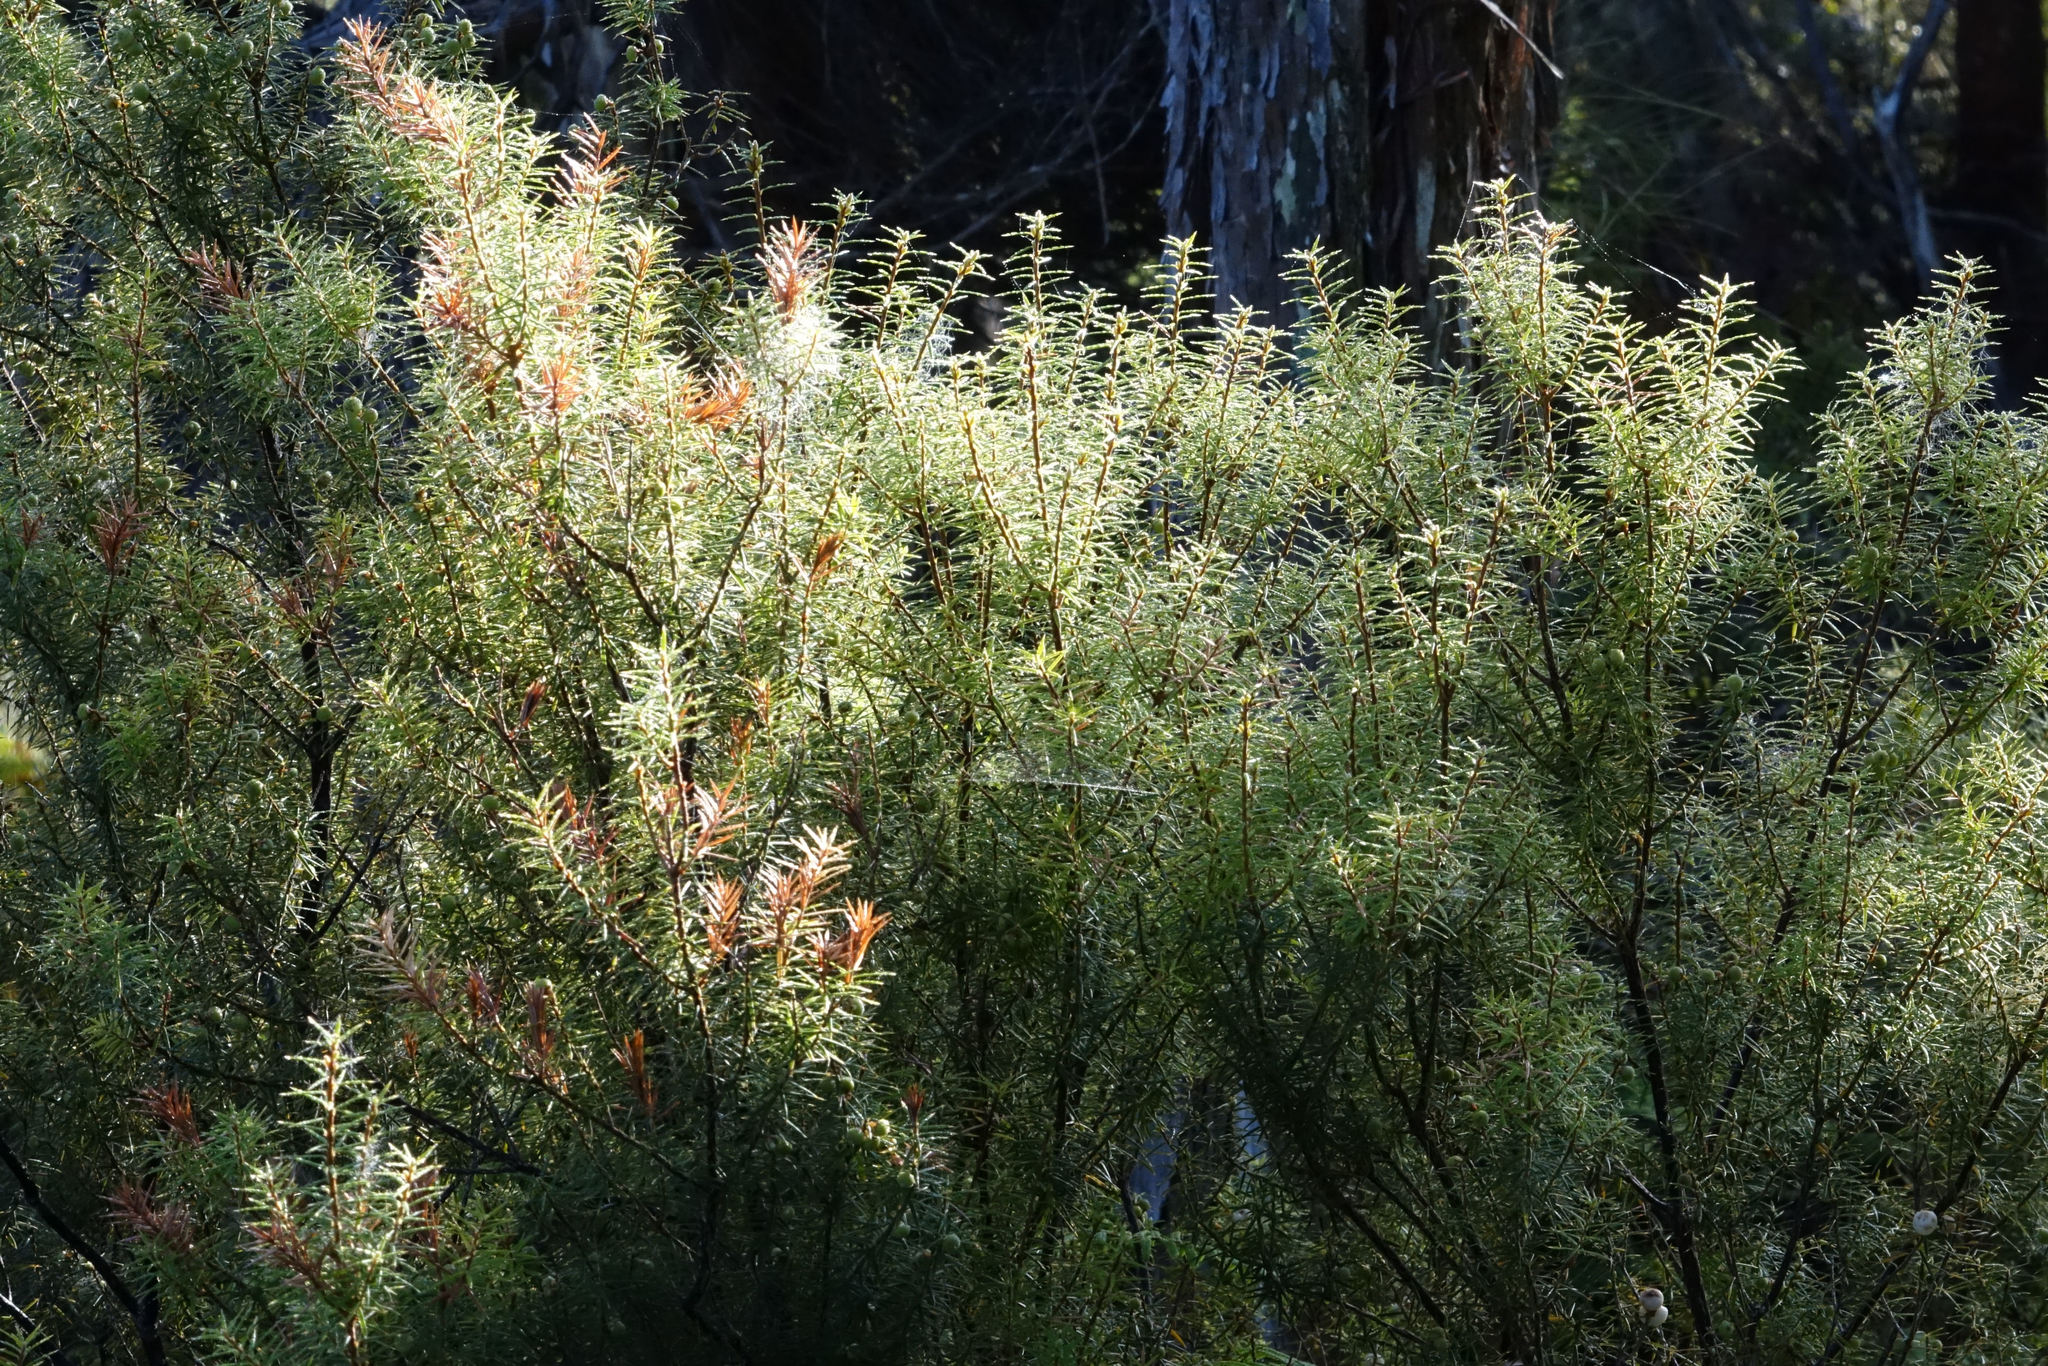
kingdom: Plantae
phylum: Tracheophyta
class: Magnoliopsida
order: Ericales
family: Ericaceae
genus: Leptecophylla
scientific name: Leptecophylla juniperina
